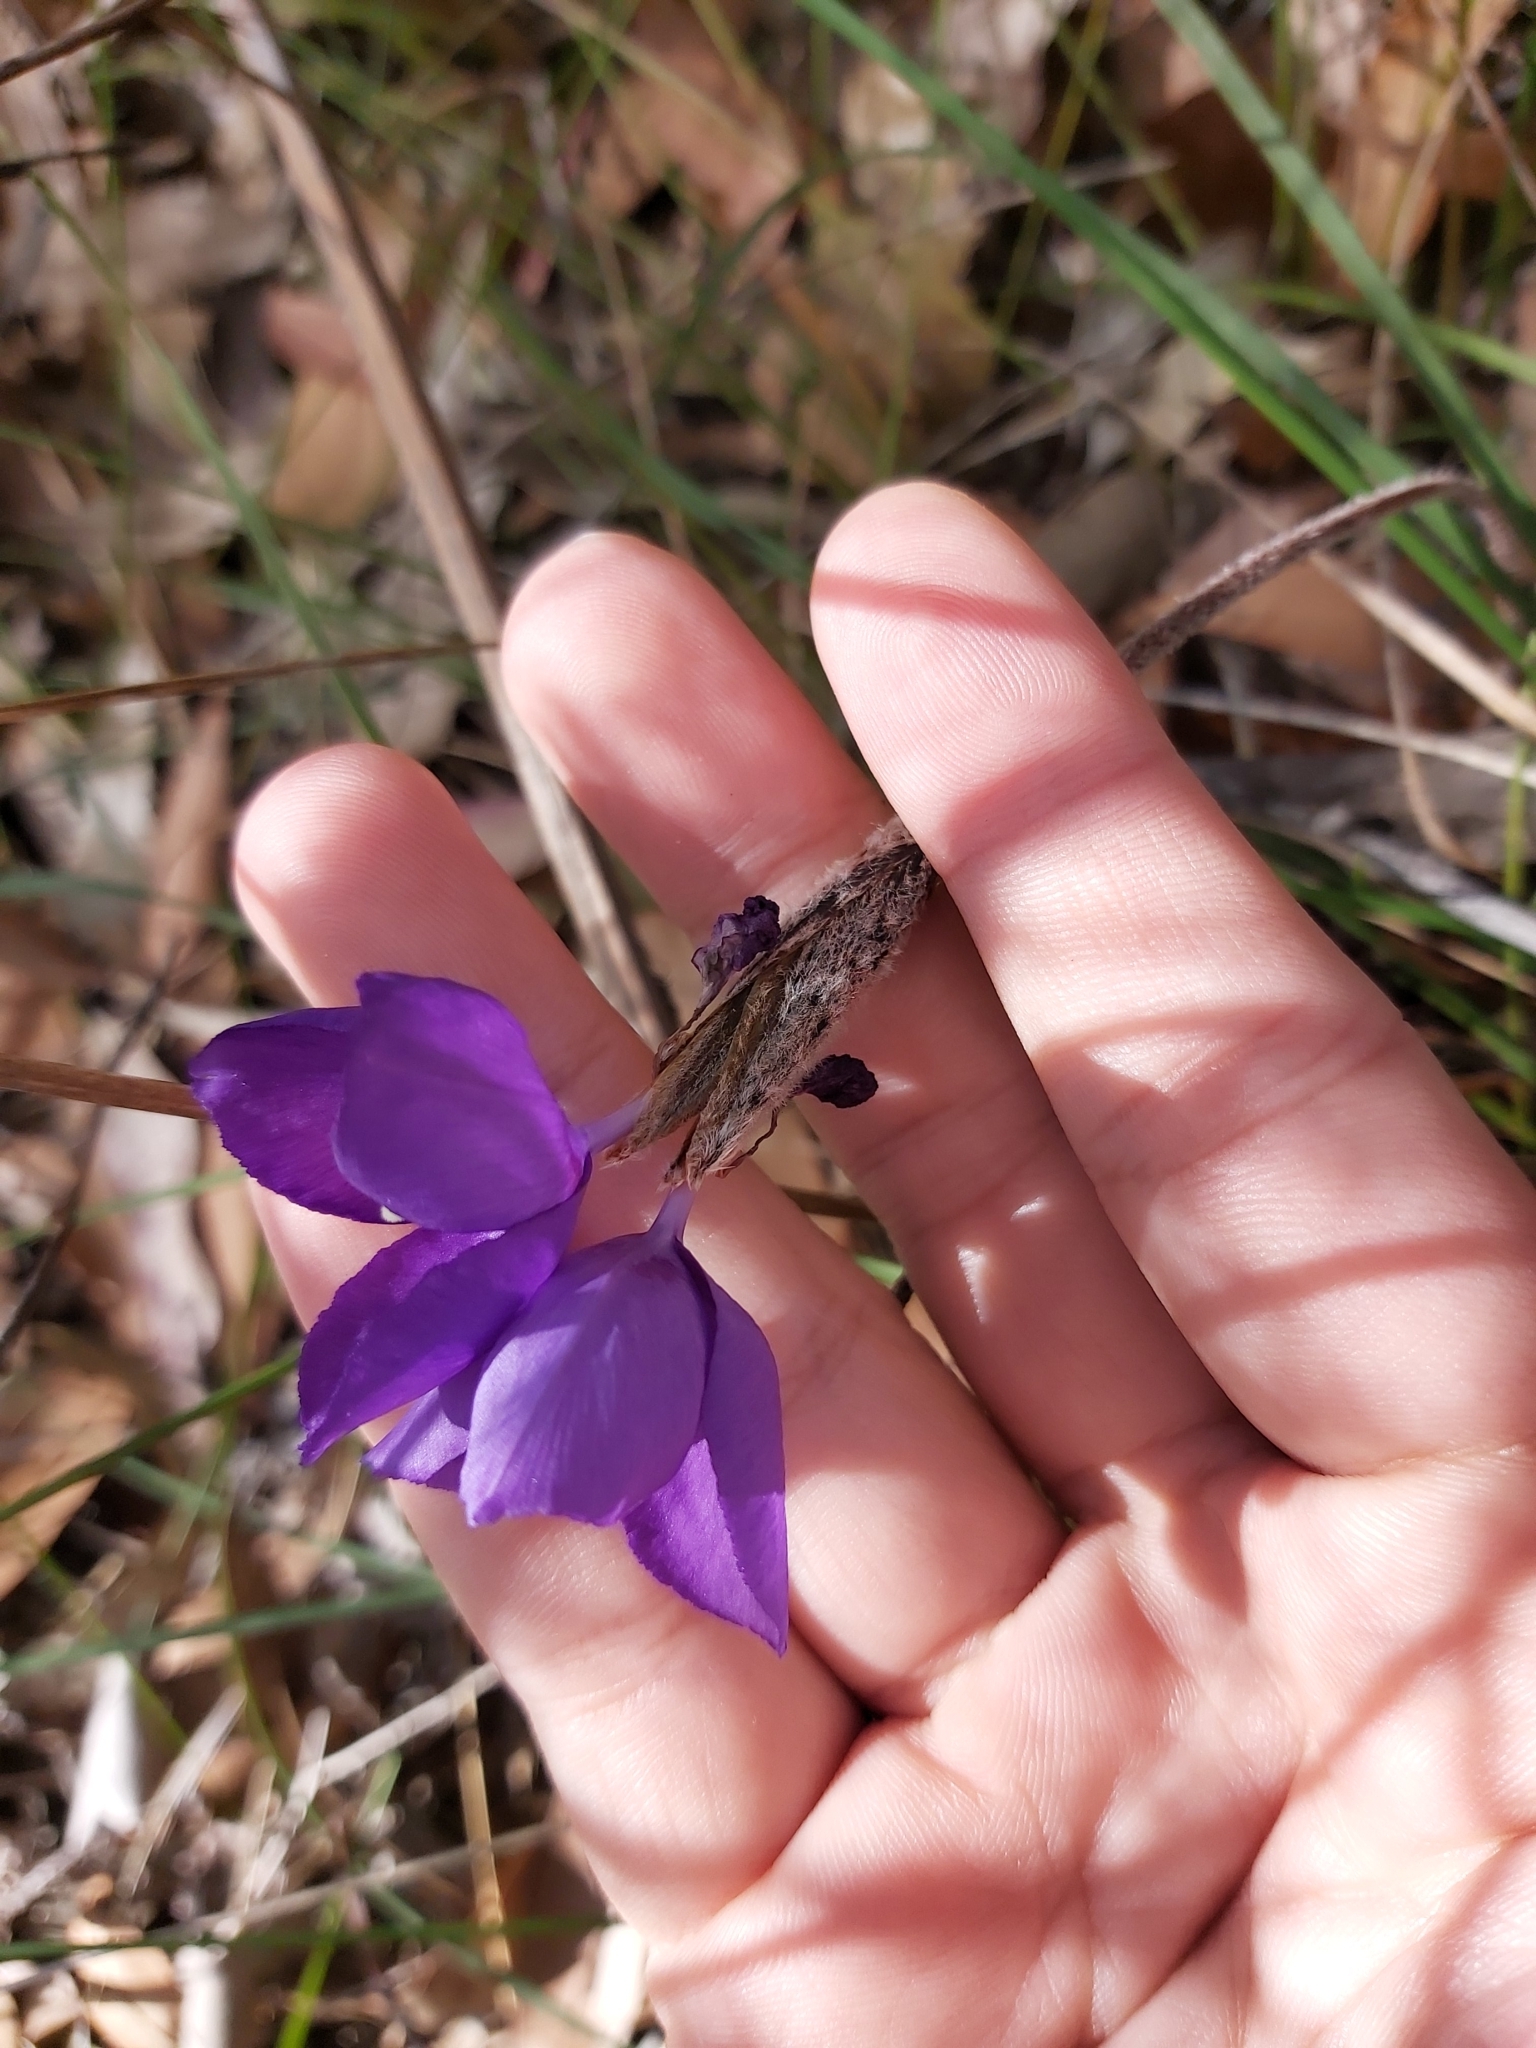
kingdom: Plantae
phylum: Tracheophyta
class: Liliopsida
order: Asparagales
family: Iridaceae
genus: Patersonia
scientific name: Patersonia sericea
